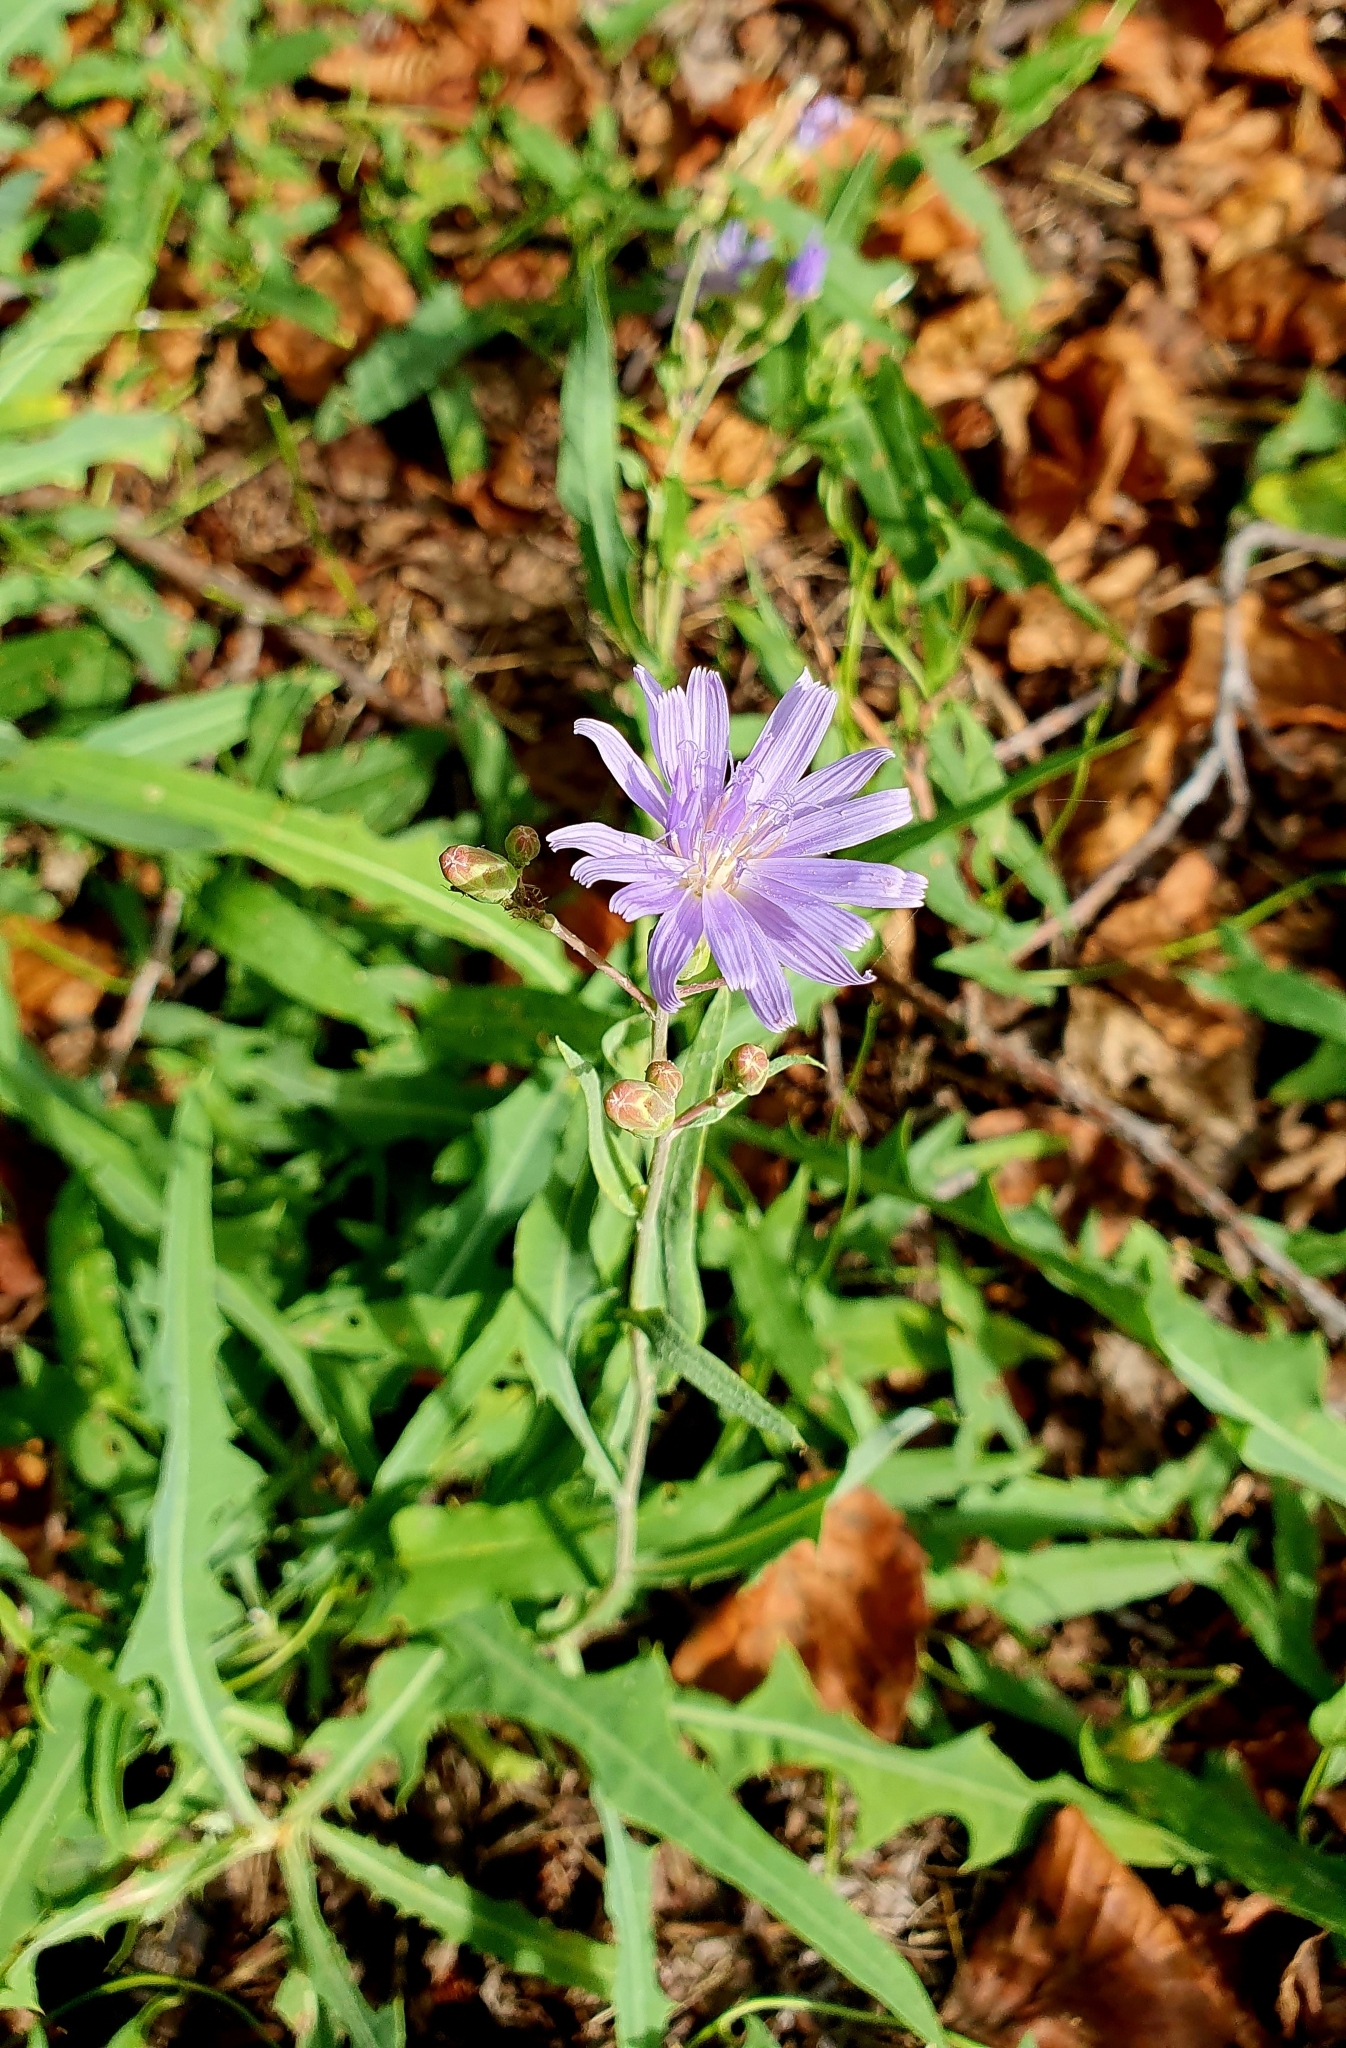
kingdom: Plantae
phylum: Tracheophyta
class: Magnoliopsida
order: Asterales
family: Asteraceae
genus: Lactuca
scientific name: Lactuca tatarica
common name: Blue lettuce
